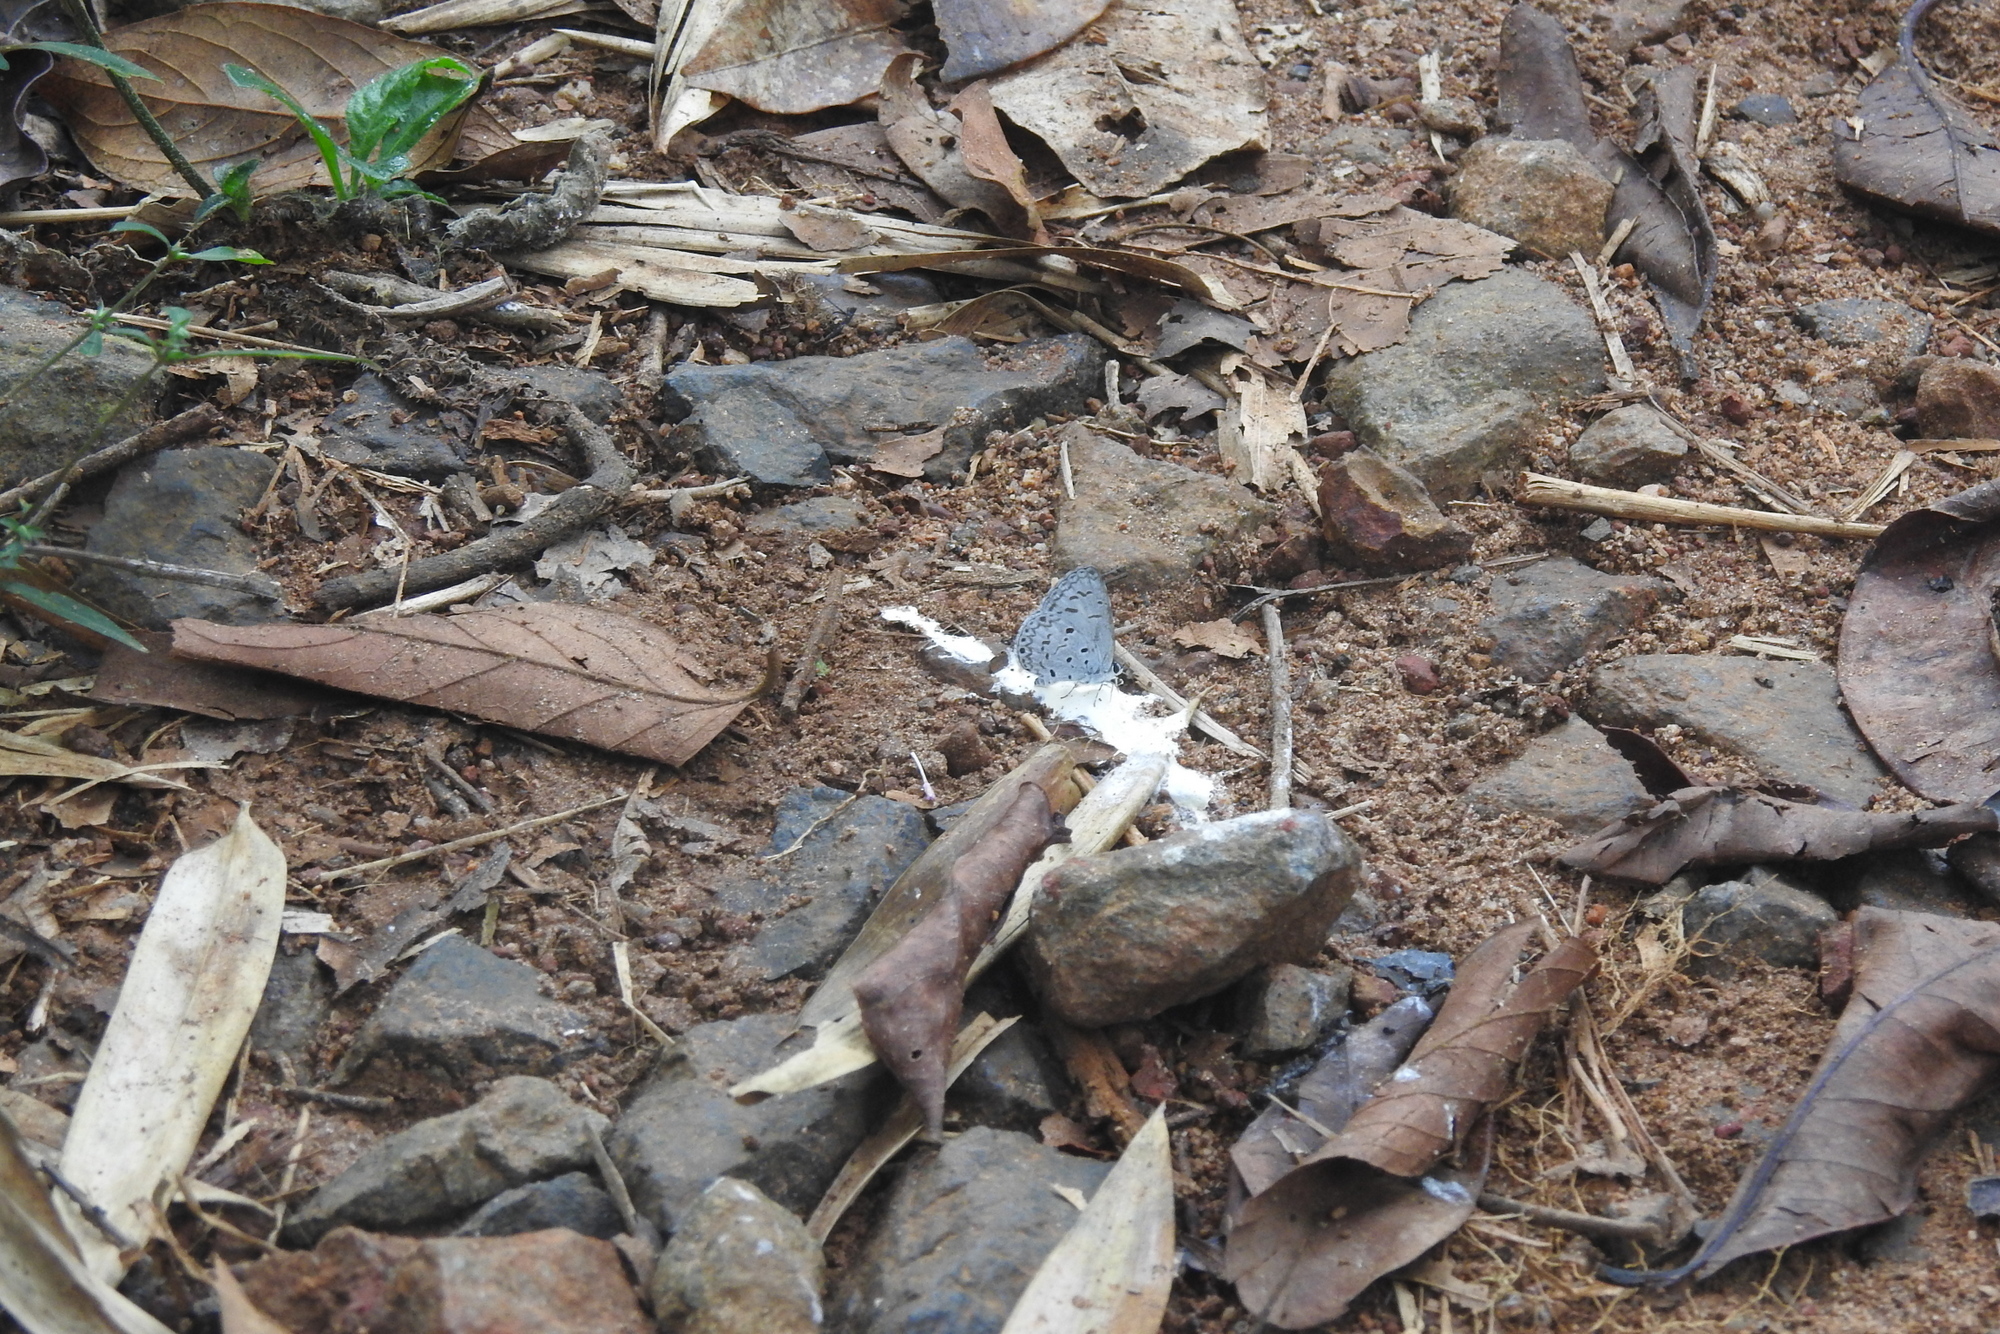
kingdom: Animalia
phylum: Arthropoda
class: Insecta
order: Lepidoptera
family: Lycaenidae
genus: Acytolepis
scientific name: Acytolepis puspa
